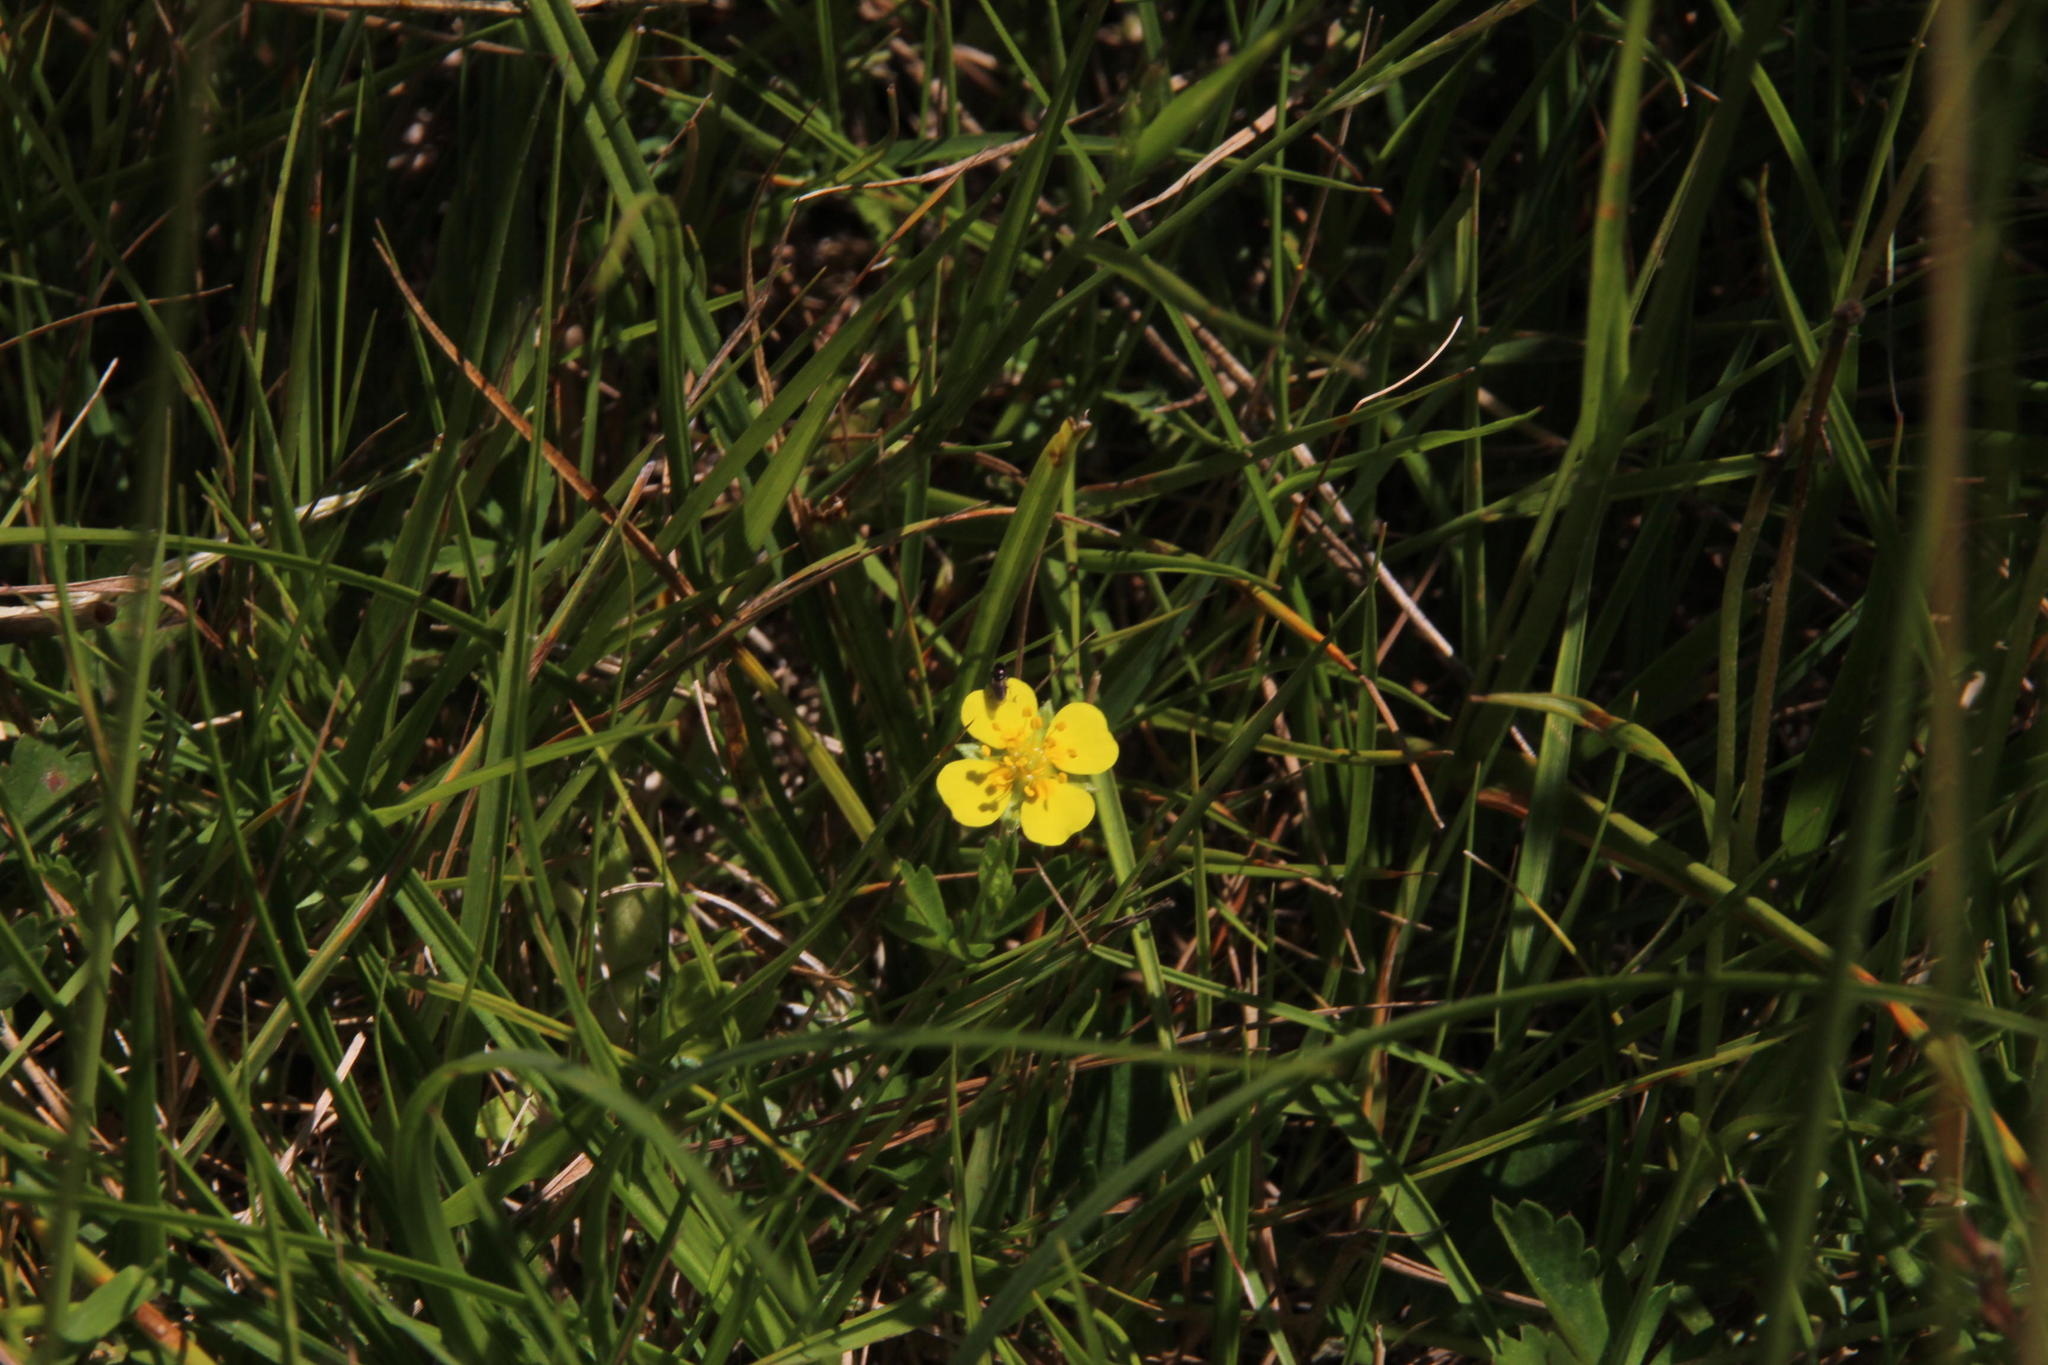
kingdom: Plantae
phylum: Tracheophyta
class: Magnoliopsida
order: Rosales
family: Rosaceae
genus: Potentilla
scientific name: Potentilla erecta
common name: Tormentil
